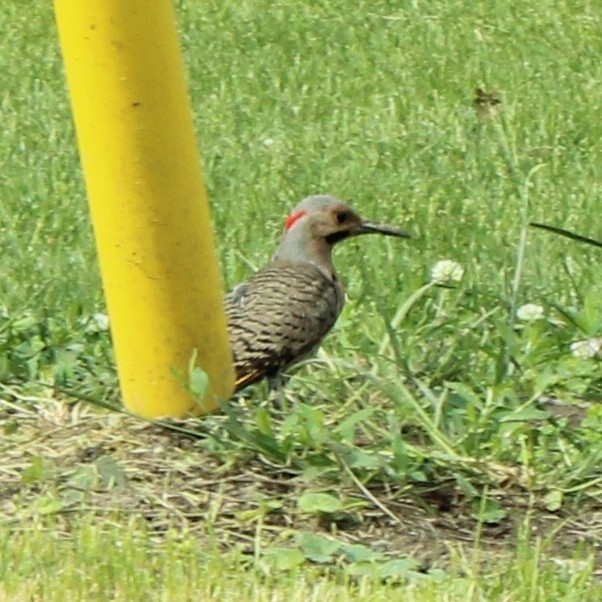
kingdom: Animalia
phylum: Chordata
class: Aves
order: Piciformes
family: Picidae
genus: Colaptes
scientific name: Colaptes auratus
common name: Northern flicker
